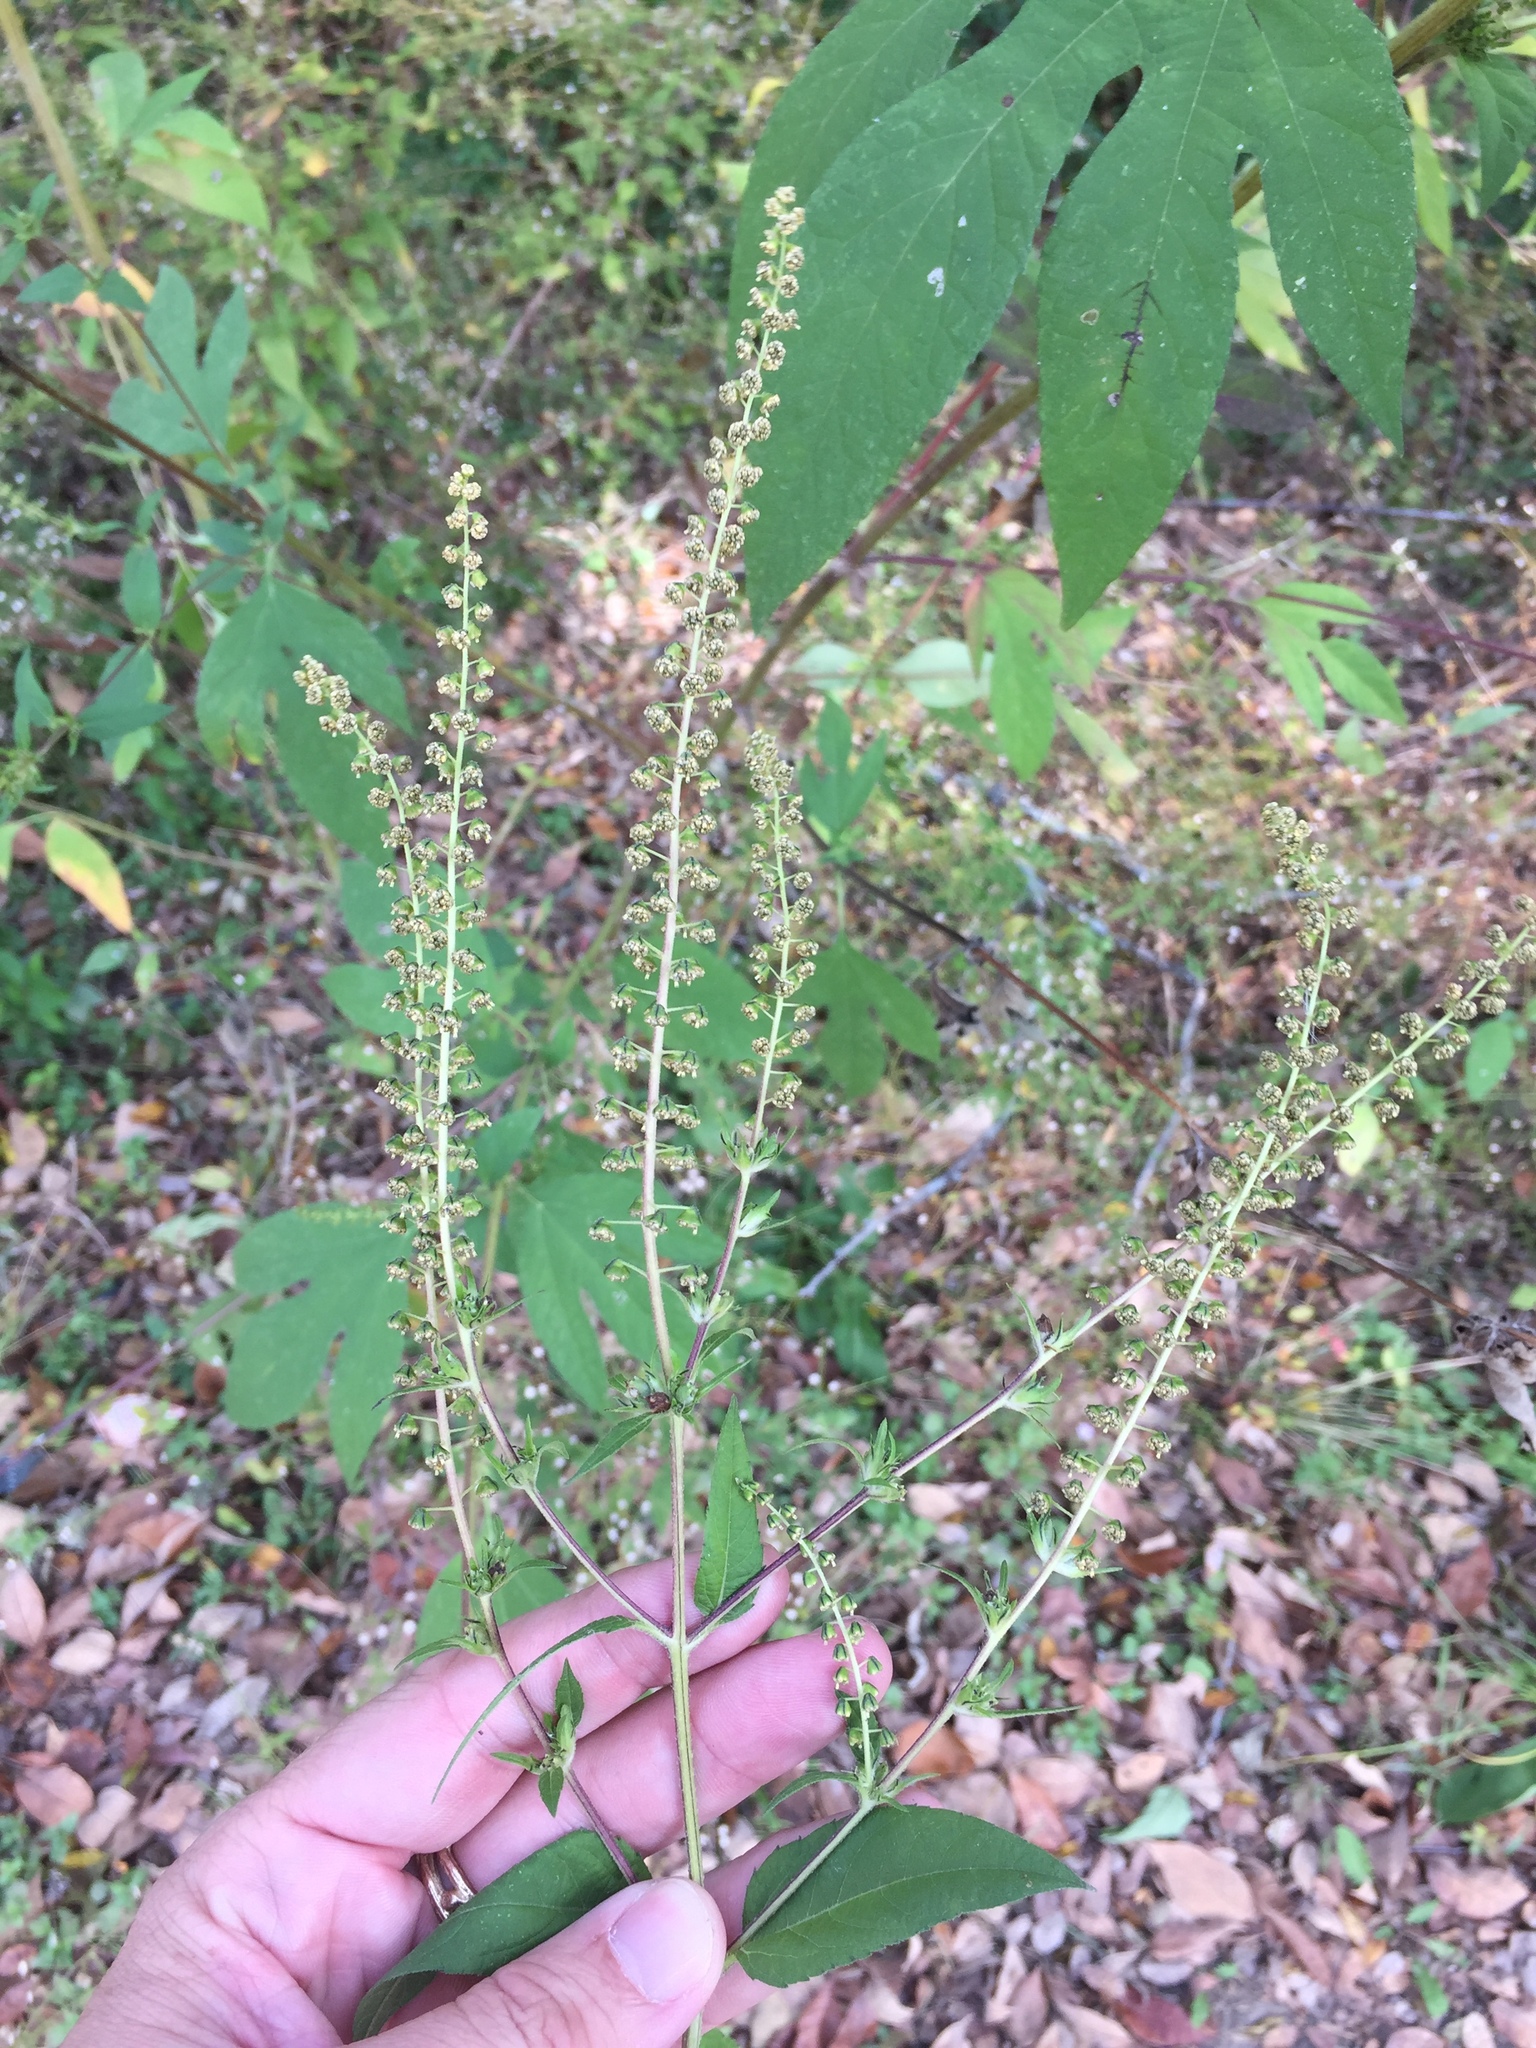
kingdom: Plantae
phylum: Tracheophyta
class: Magnoliopsida
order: Asterales
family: Asteraceae
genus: Ambrosia
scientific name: Ambrosia trifida
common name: Giant ragweed
